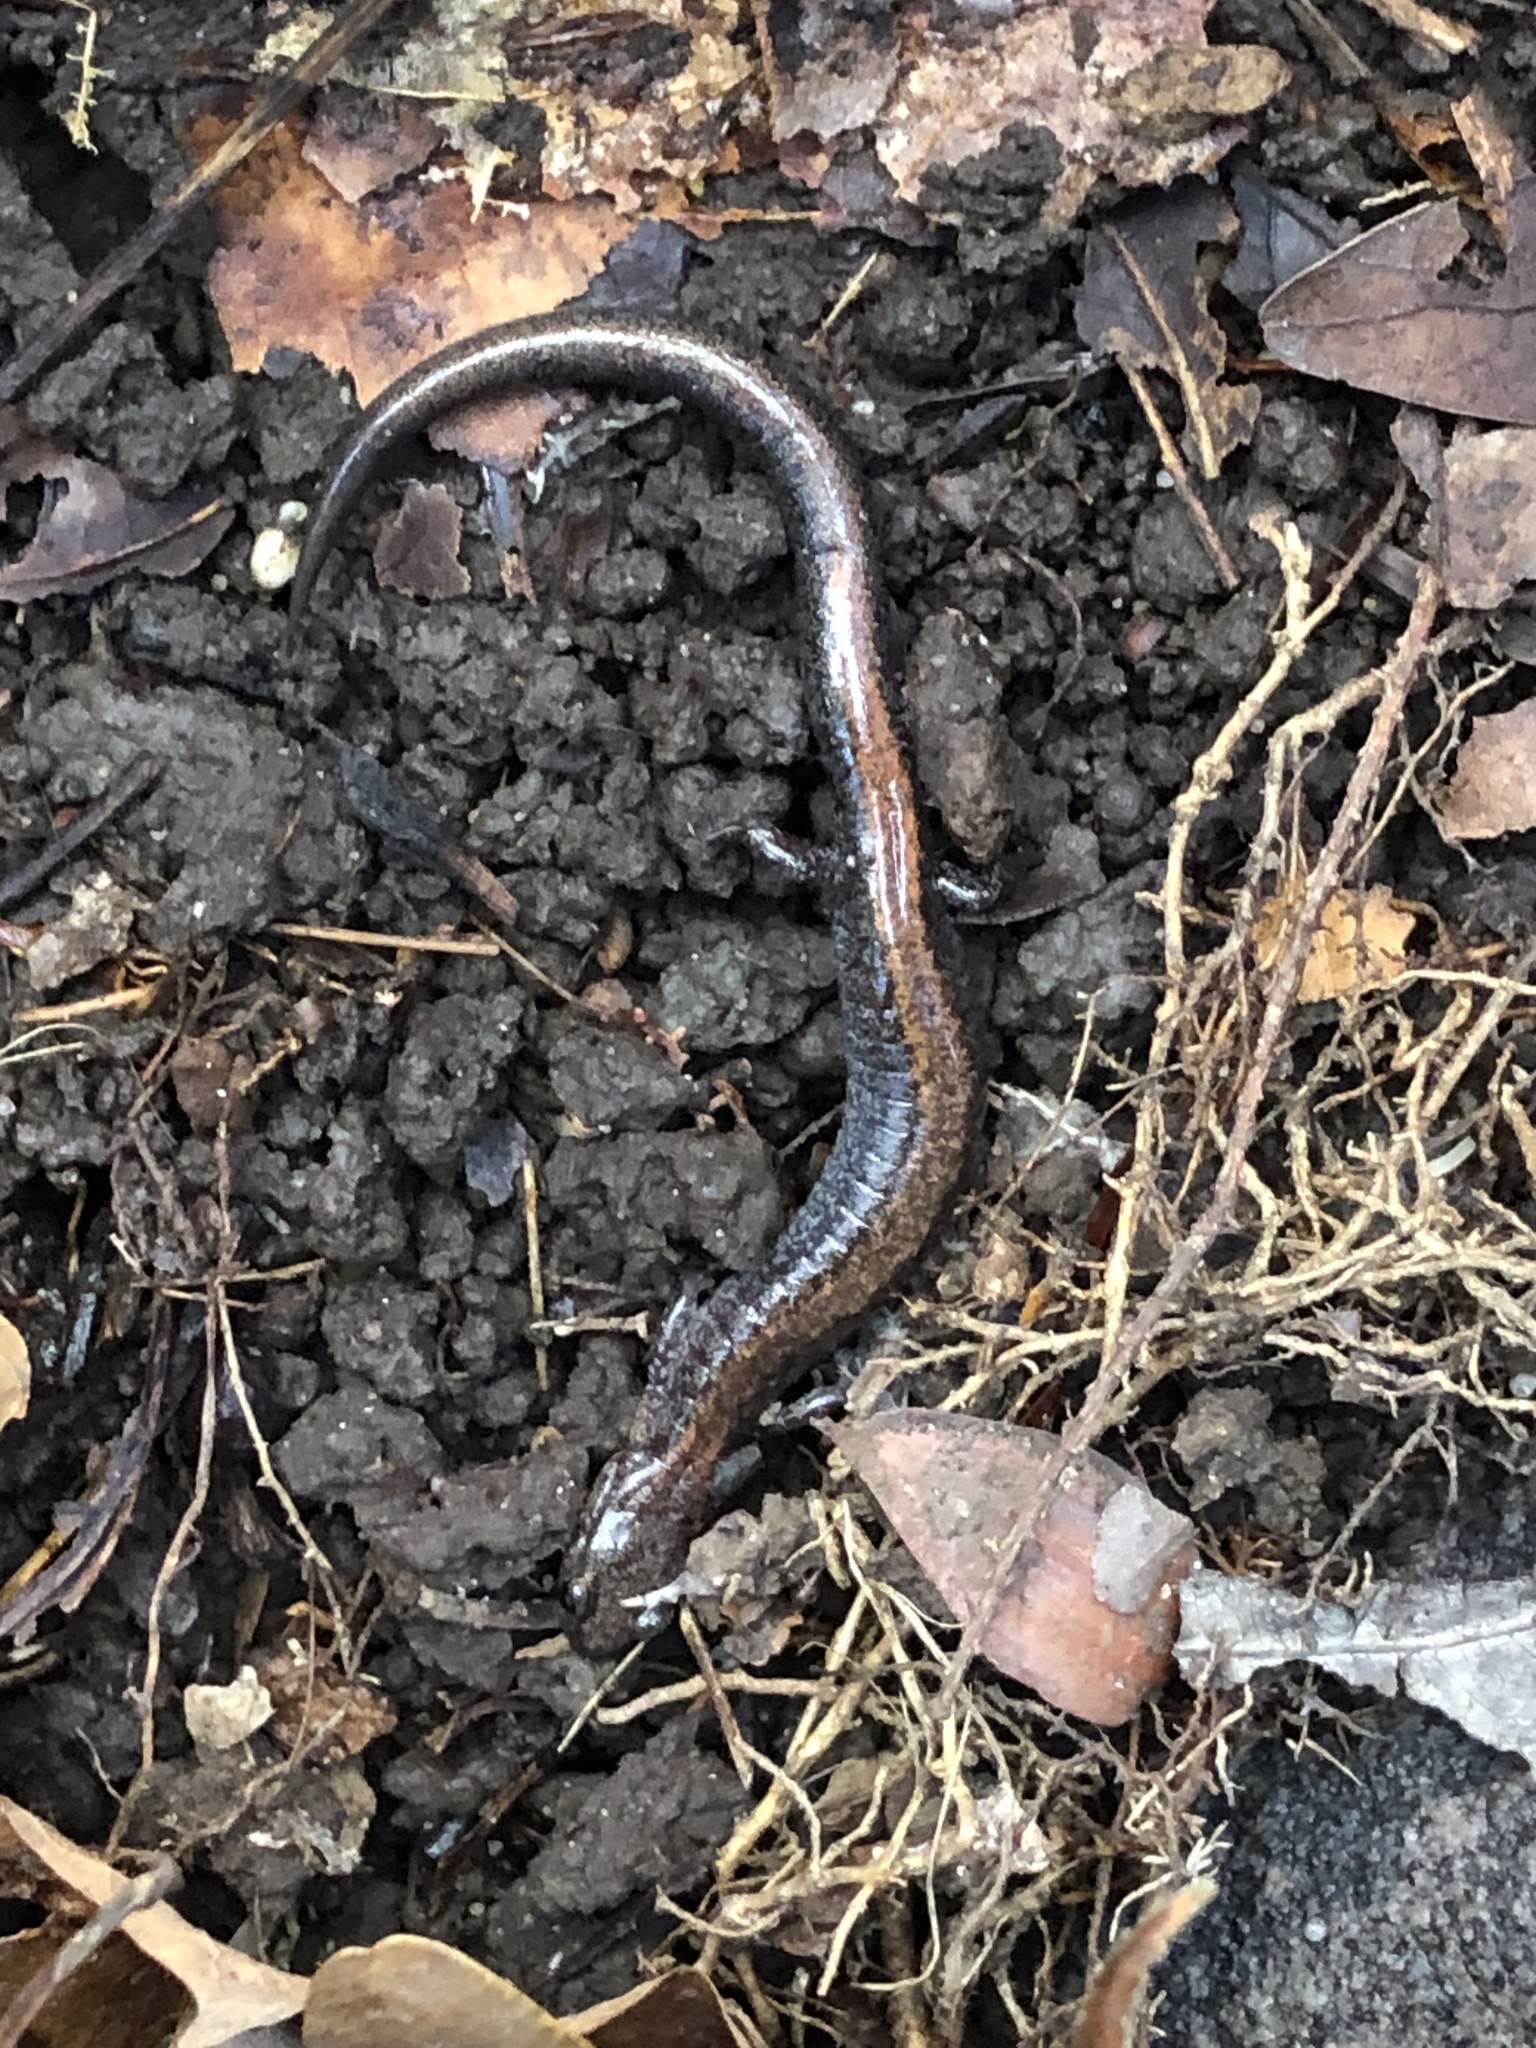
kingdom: Animalia
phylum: Chordata
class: Amphibia
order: Caudata
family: Plethodontidae
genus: Plethodon
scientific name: Plethodon cinereus
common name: Redback salamander
